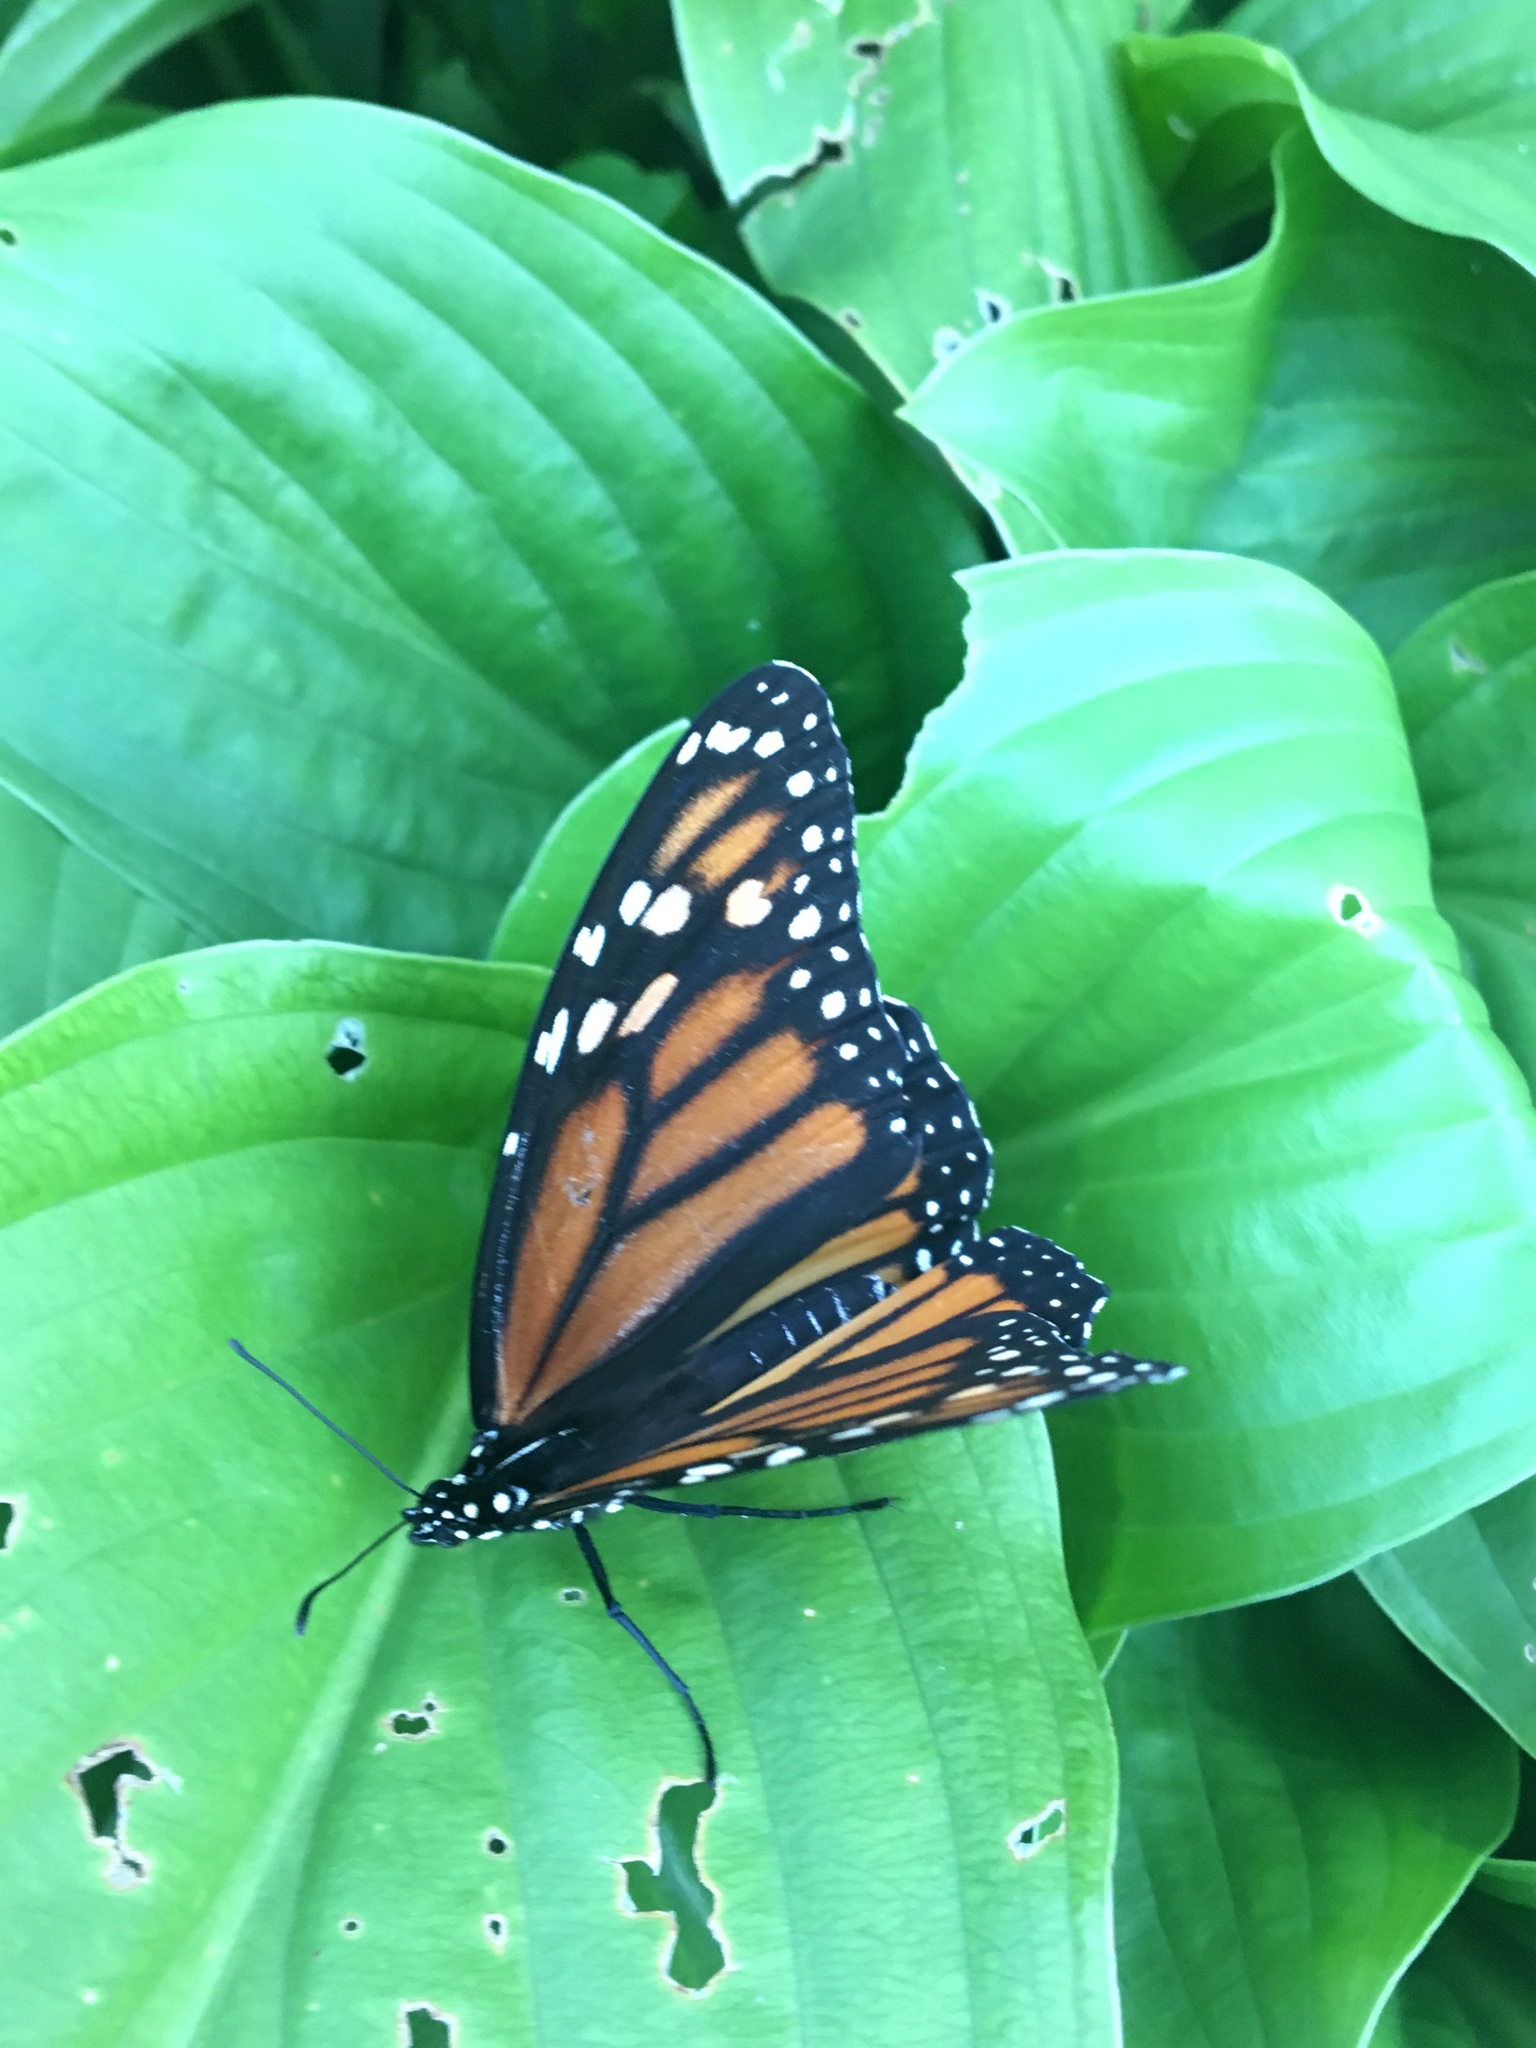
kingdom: Animalia
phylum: Arthropoda
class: Insecta
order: Lepidoptera
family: Nymphalidae
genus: Danaus
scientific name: Danaus plexippus
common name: Monarch
